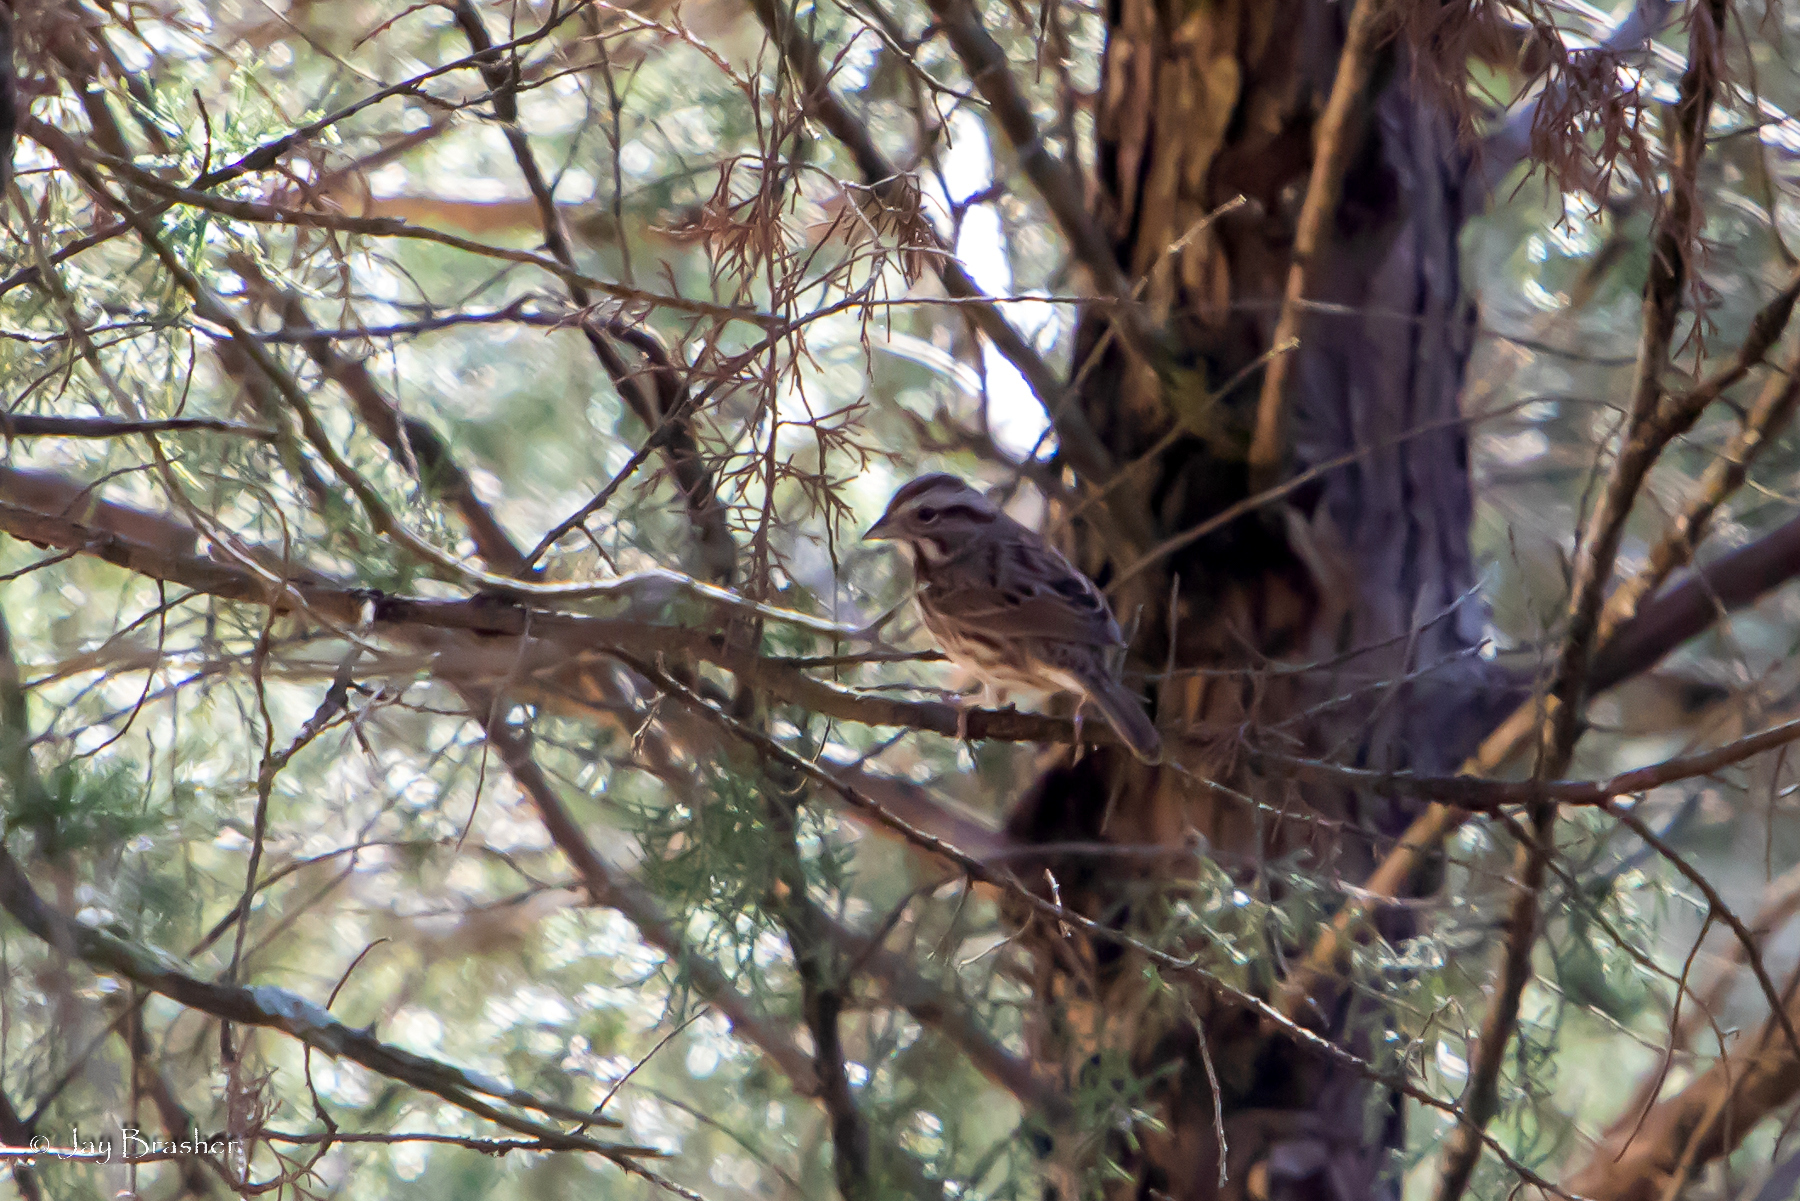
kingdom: Animalia
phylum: Chordata
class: Aves
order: Passeriformes
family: Passerellidae
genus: Melospiza
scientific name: Melospiza melodia
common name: Song sparrow
